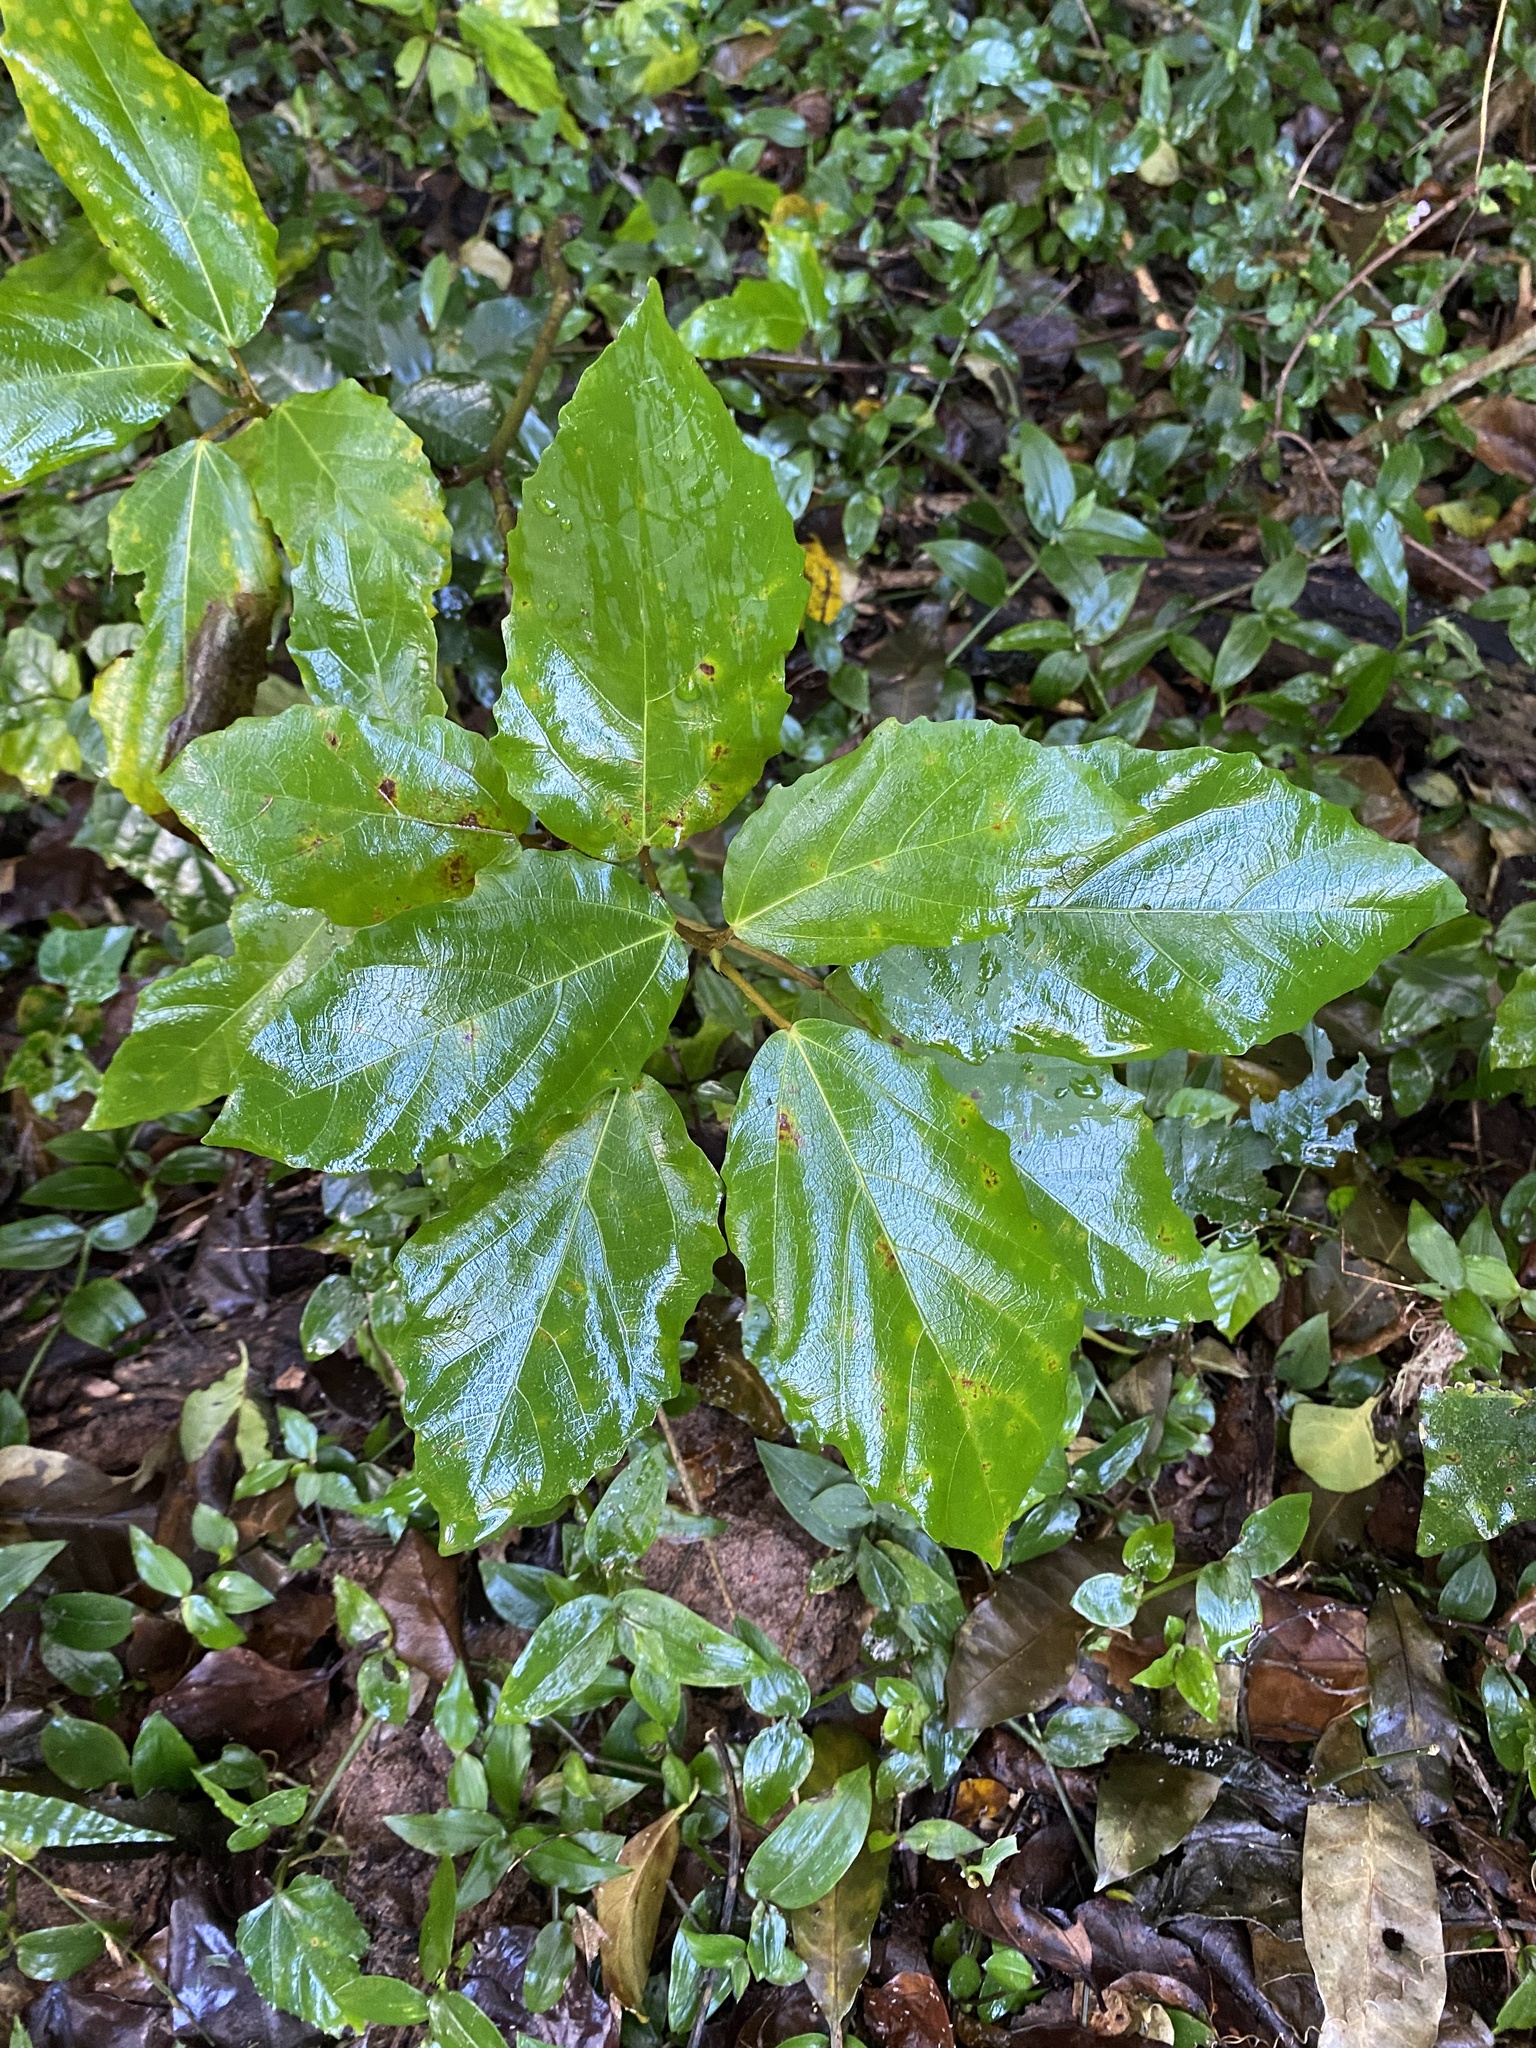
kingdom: Plantae
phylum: Tracheophyta
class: Magnoliopsida
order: Rosales
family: Moraceae
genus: Ficus
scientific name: Ficus sur
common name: Cape fig
